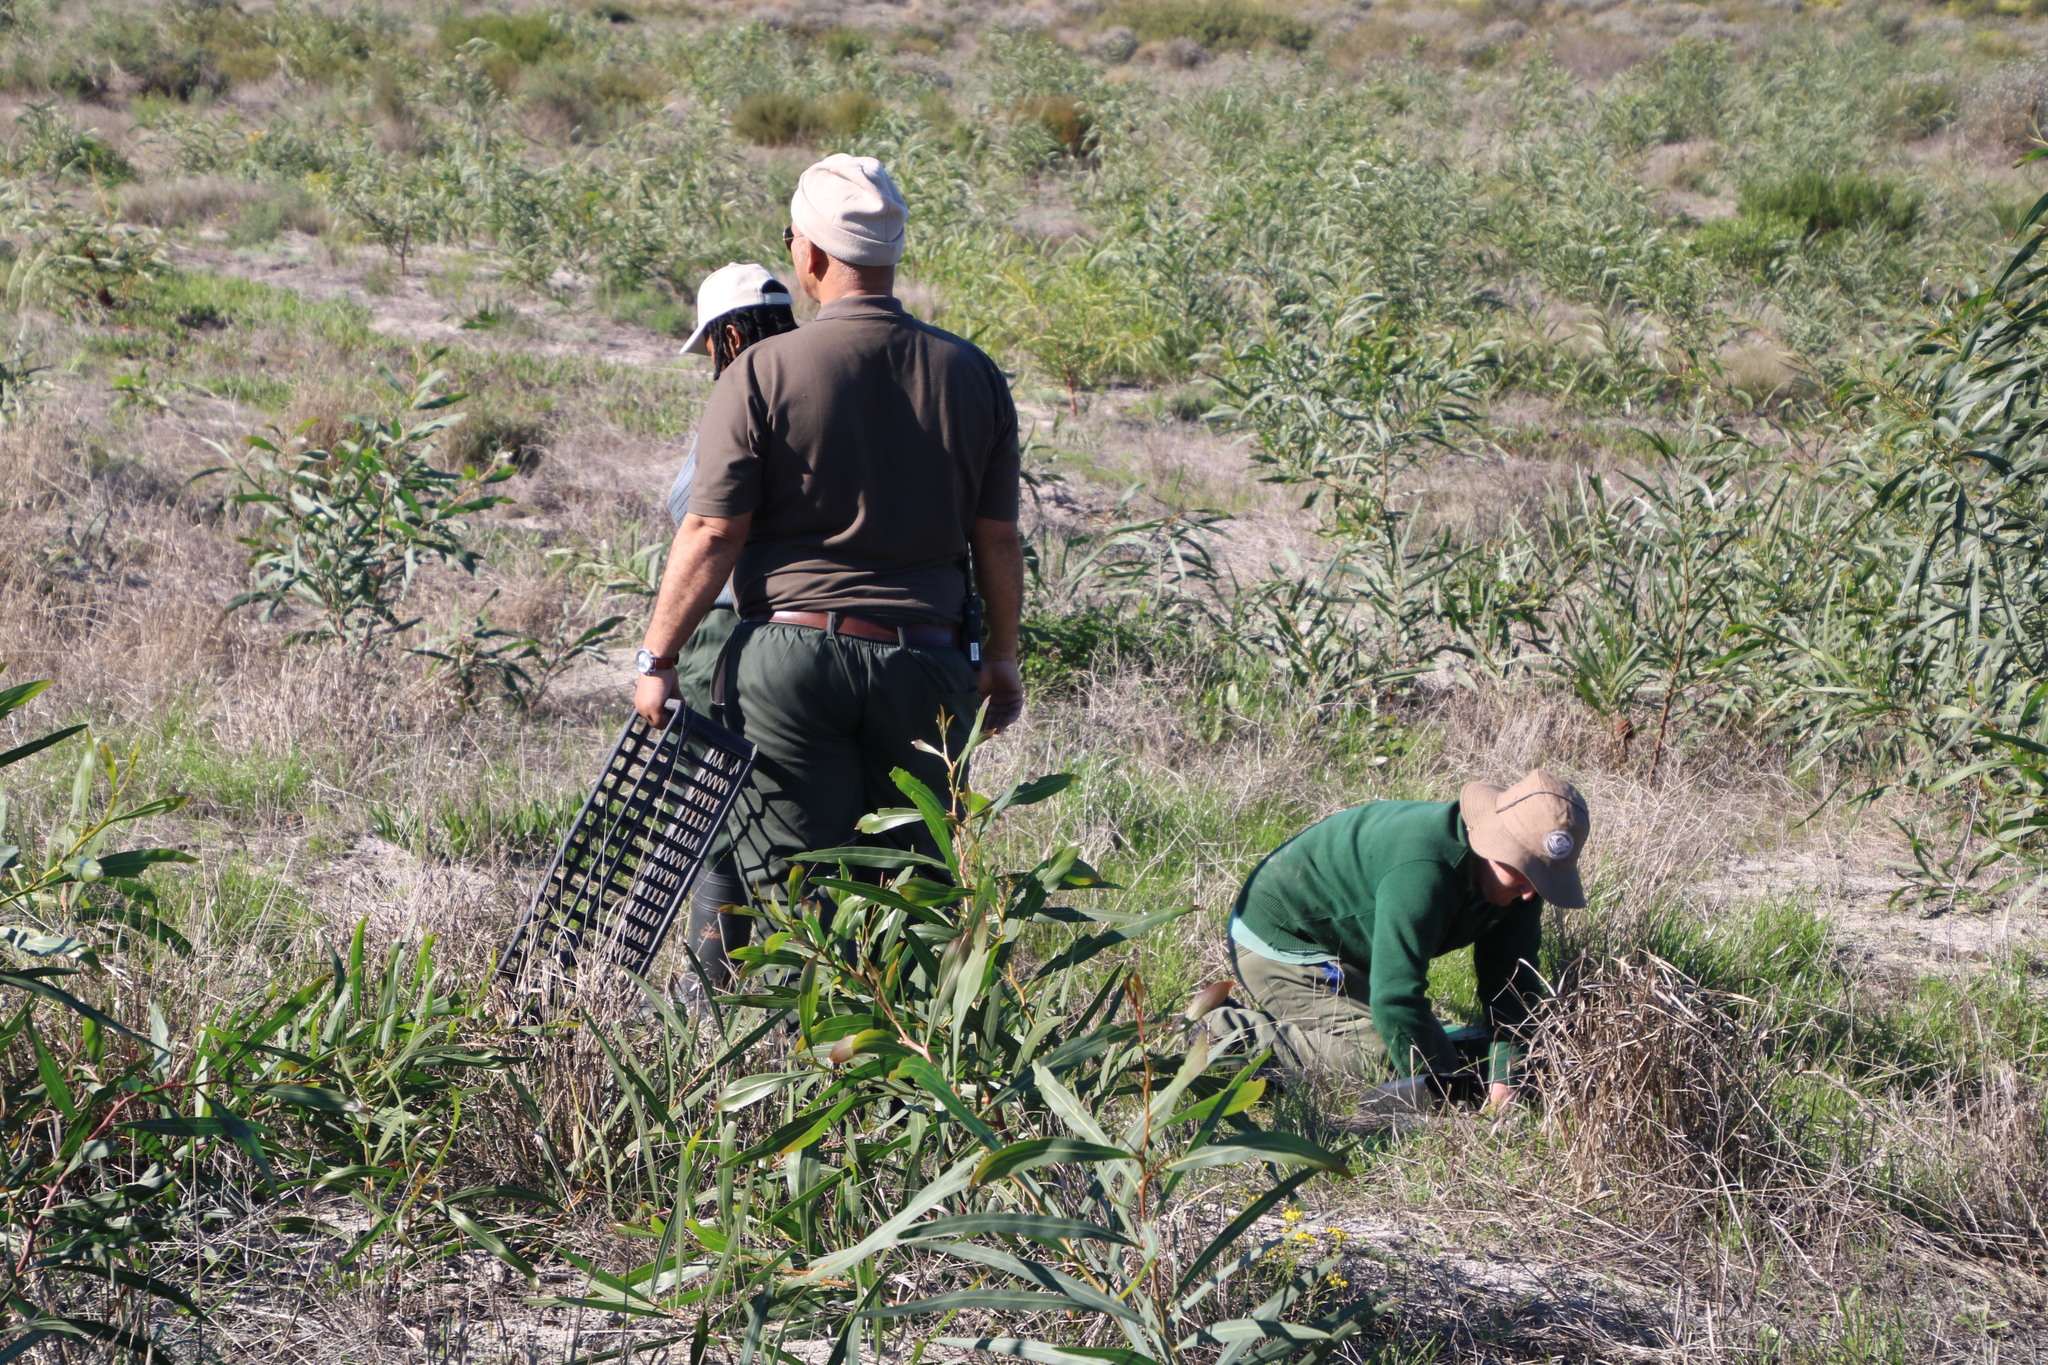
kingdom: Plantae
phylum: Tracheophyta
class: Magnoliopsida
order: Proteales
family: Proteaceae
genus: Serruria
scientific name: Serruria furcellata
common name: Kraaifontein spiderhead
